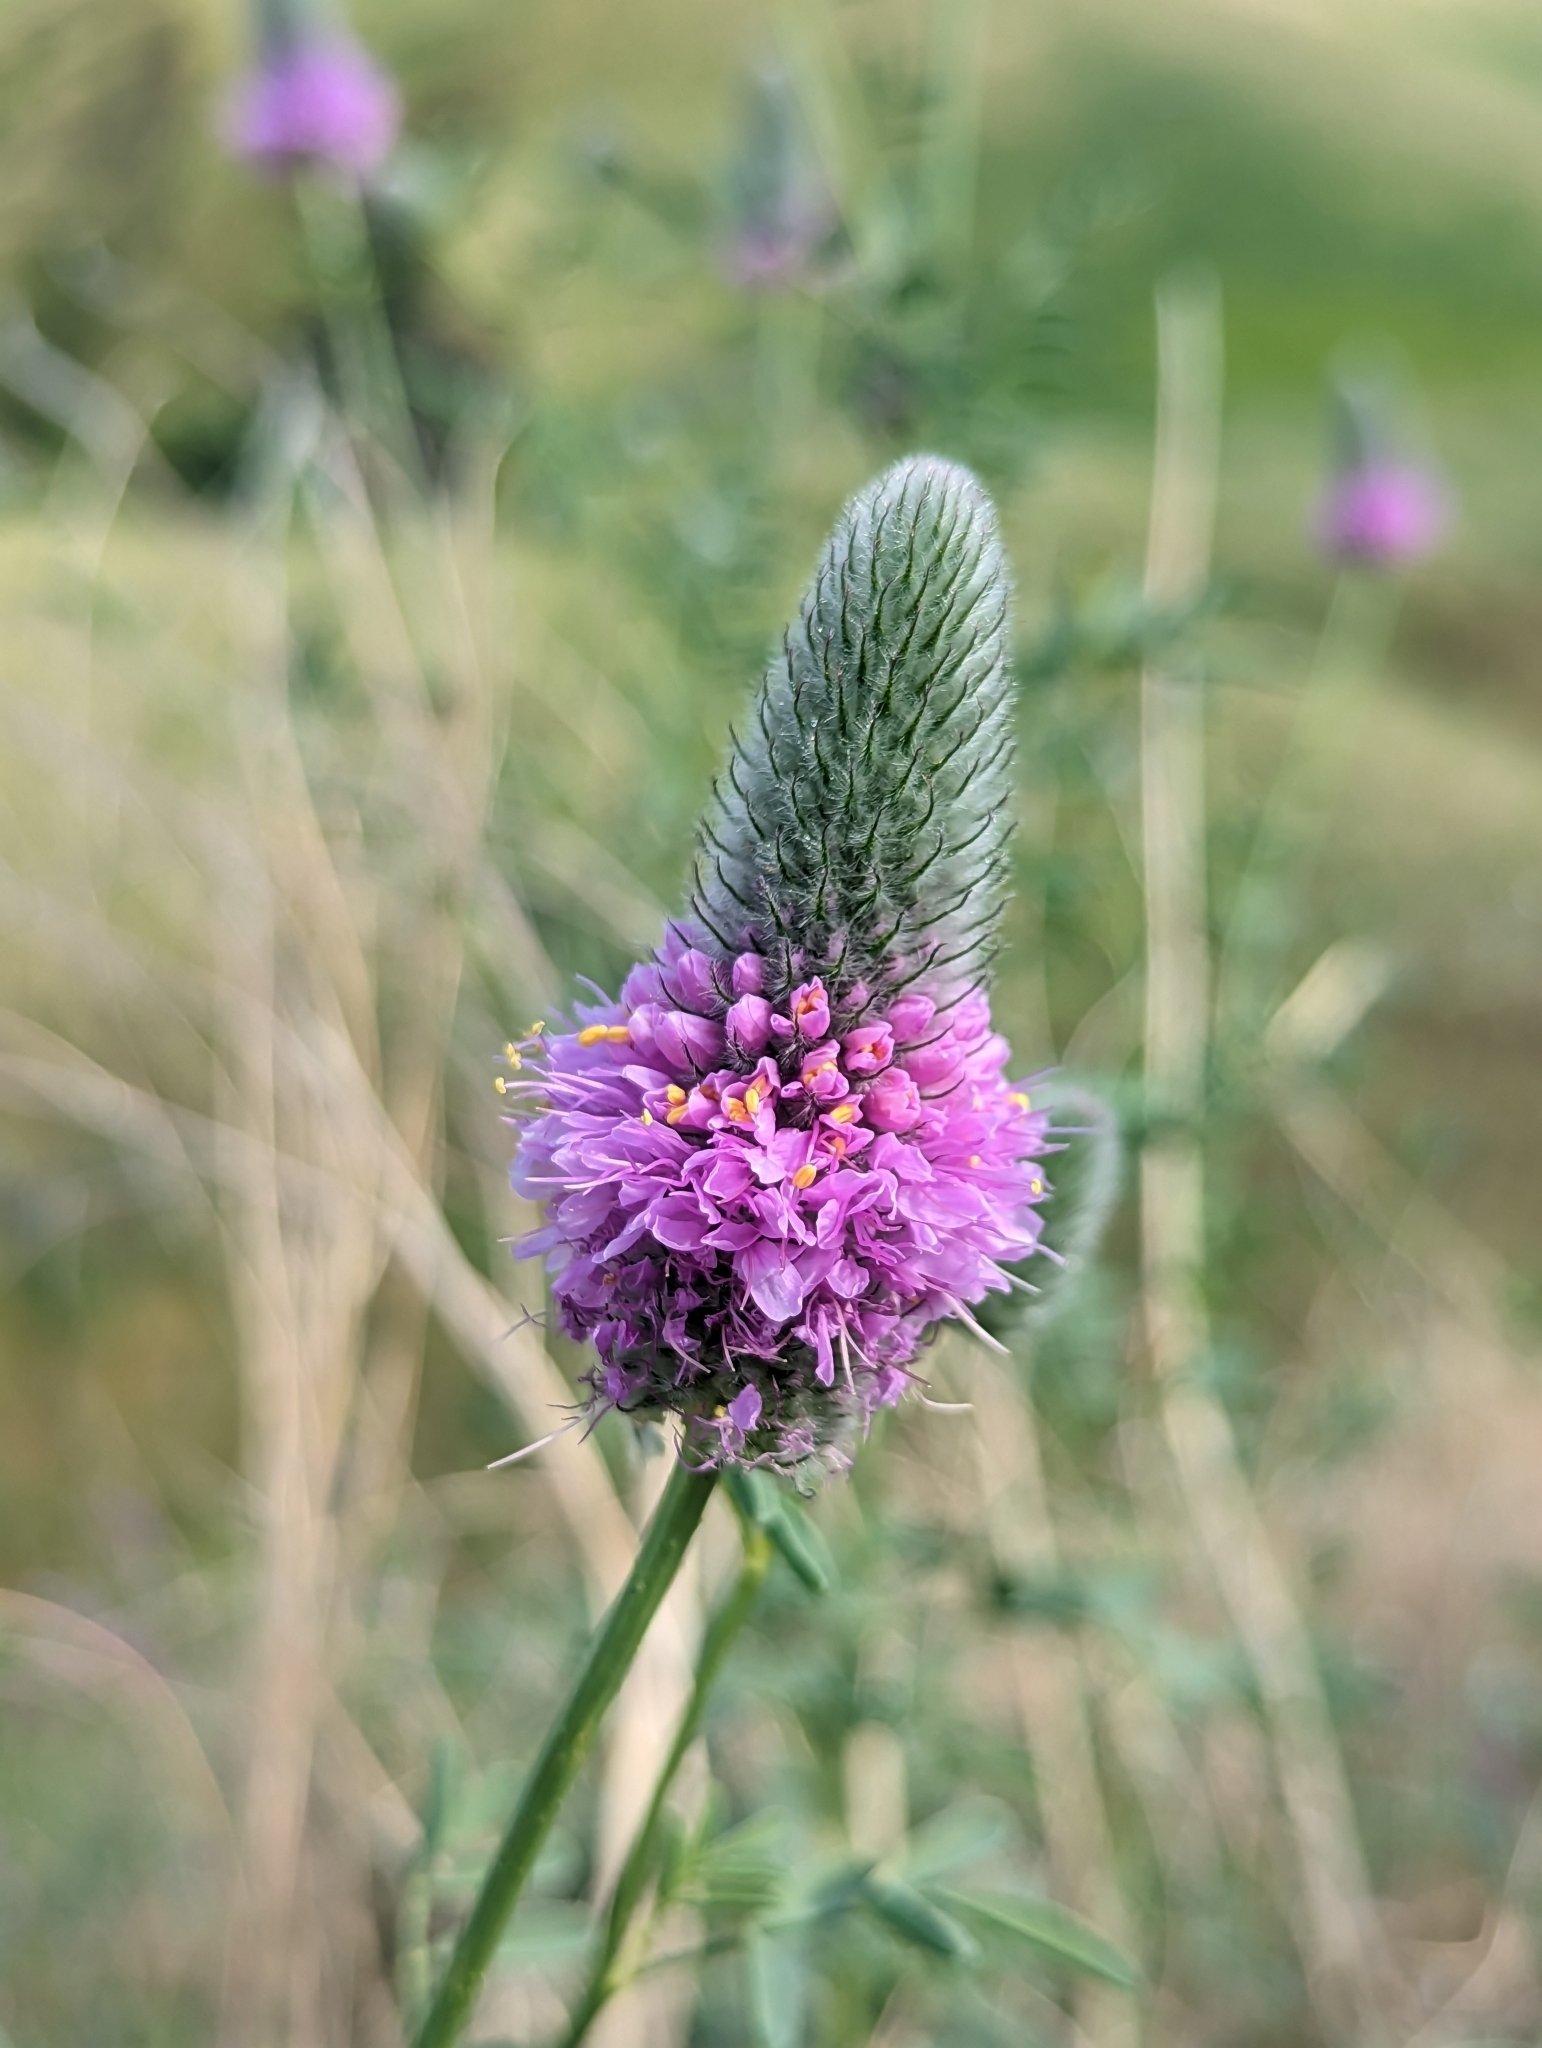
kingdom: Plantae
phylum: Tracheophyta
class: Magnoliopsida
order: Fabales
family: Fabaceae
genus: Dalea
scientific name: Dalea ornata
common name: Blue mountain prairie-clover
